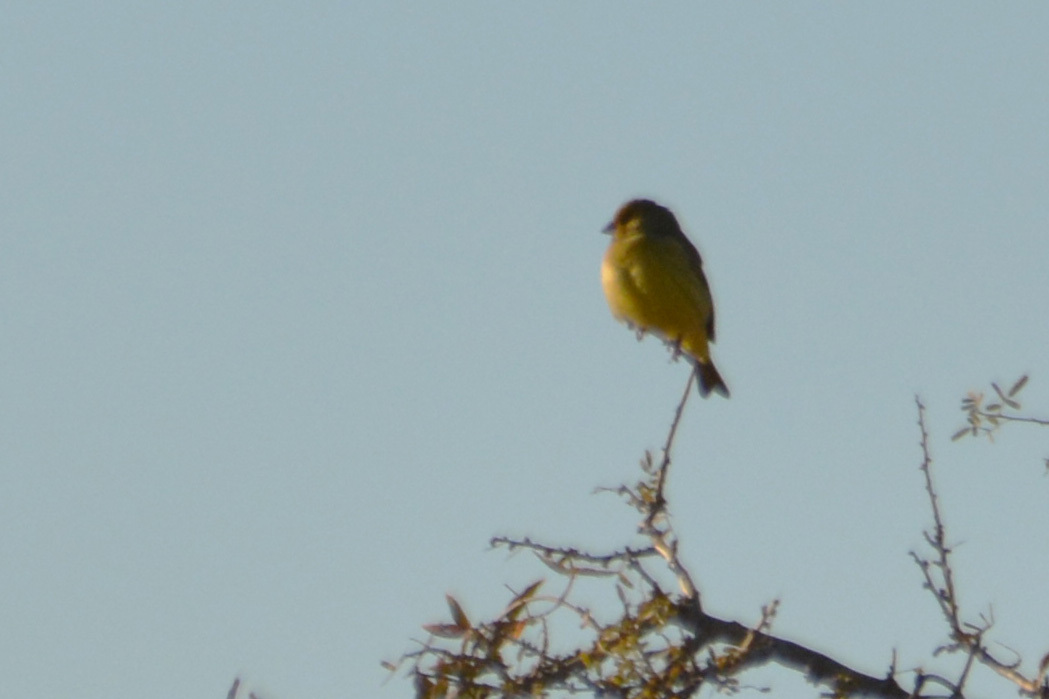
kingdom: Animalia
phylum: Chordata
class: Aves
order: Passeriformes
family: Thraupidae
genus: Sicalis
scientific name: Sicalis flaveola
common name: Saffron finch
